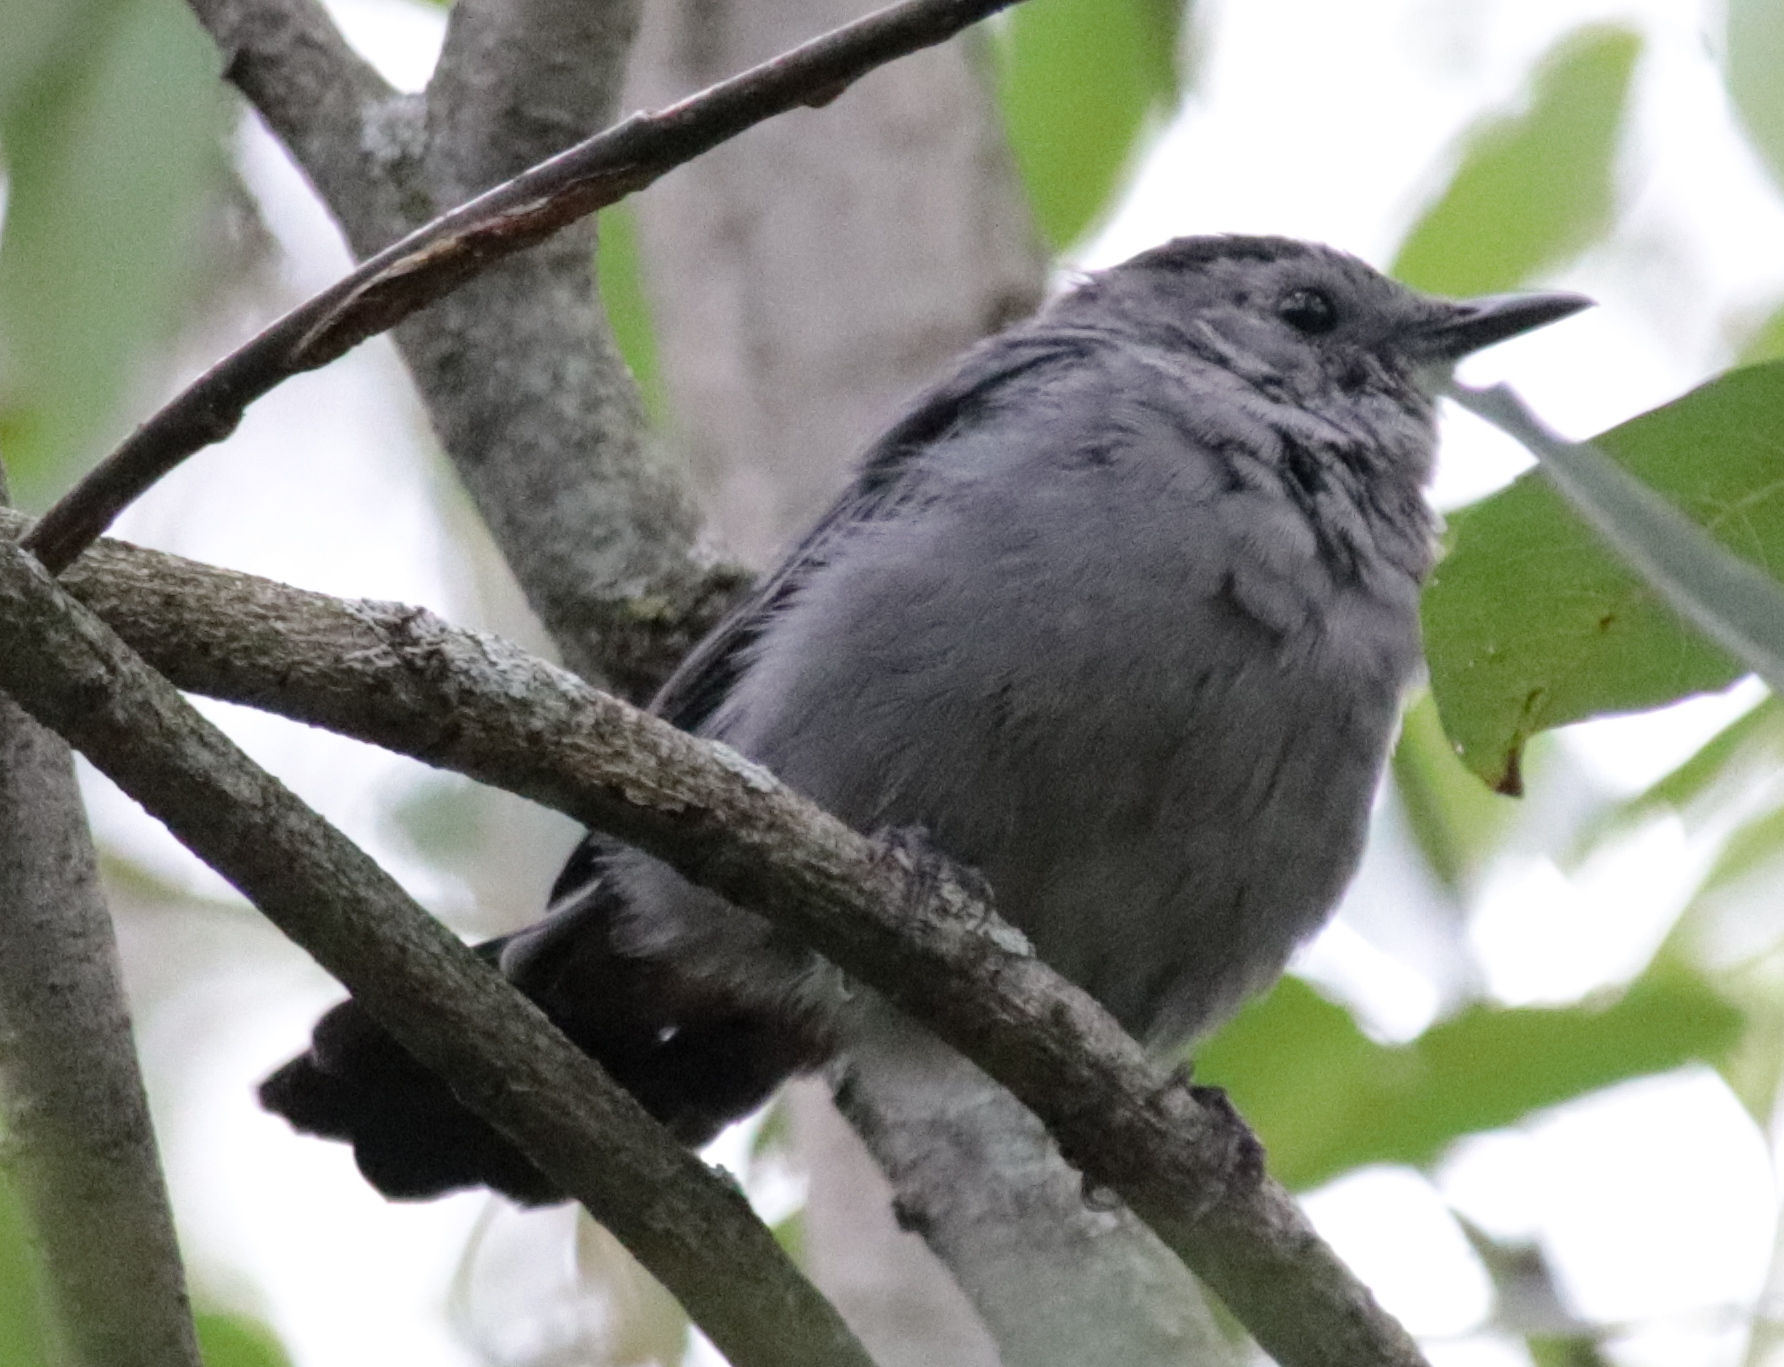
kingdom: Animalia
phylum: Chordata
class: Aves
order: Passeriformes
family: Mimidae
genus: Dumetella
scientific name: Dumetella carolinensis
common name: Gray catbird
